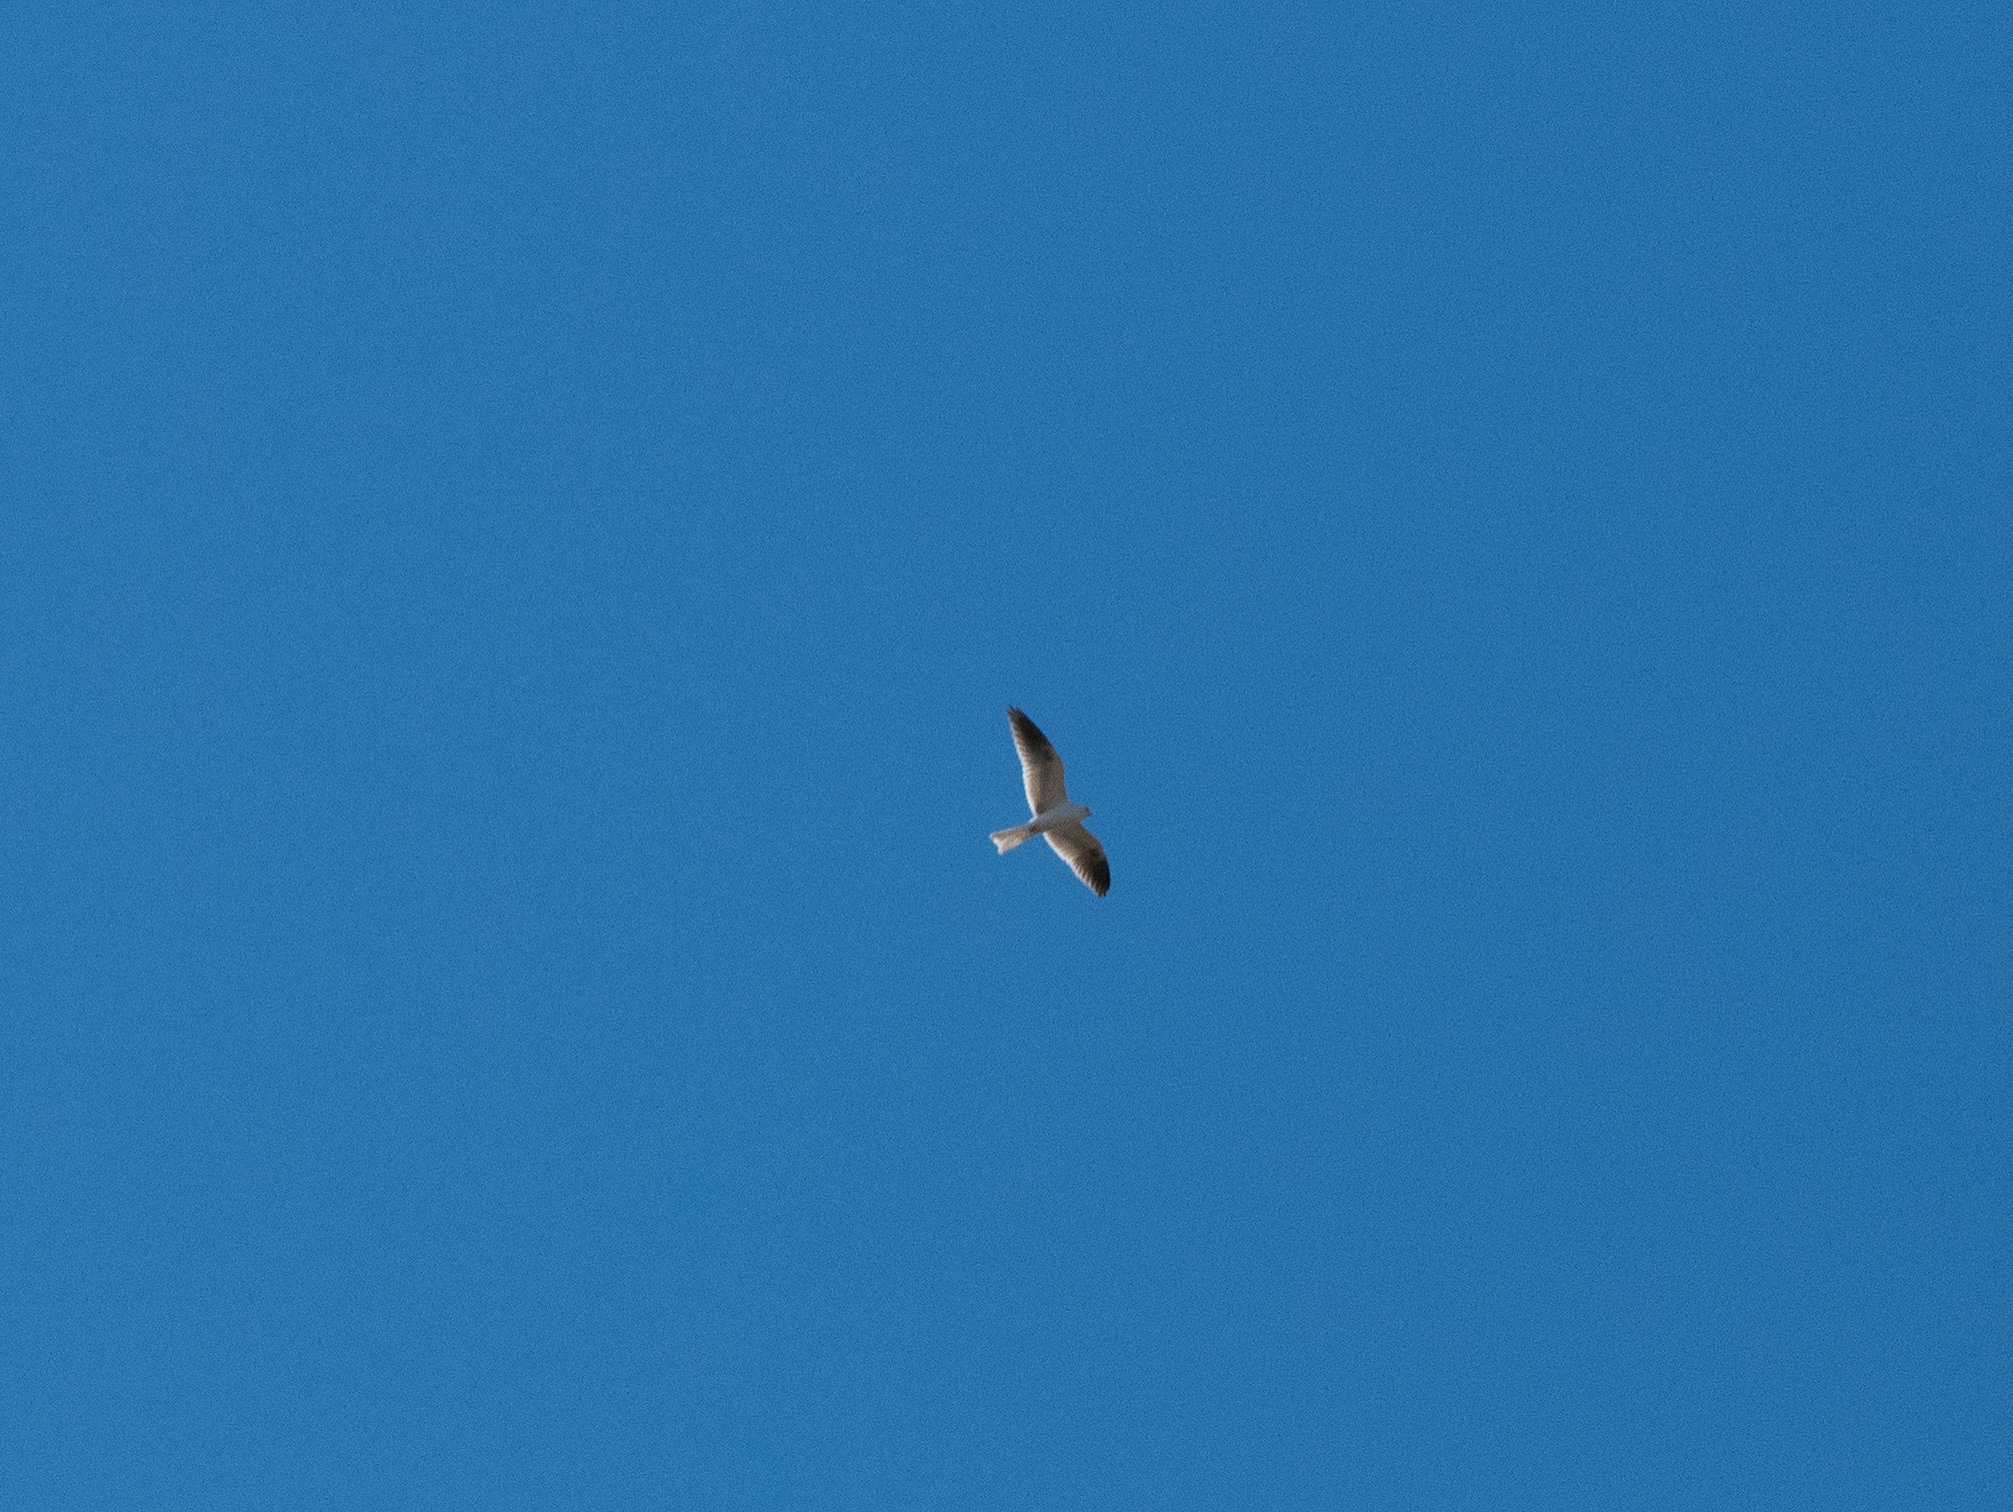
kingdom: Animalia
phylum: Chordata
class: Aves
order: Accipitriformes
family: Accipitridae
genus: Elanus
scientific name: Elanus leucurus
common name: White-tailed kite
